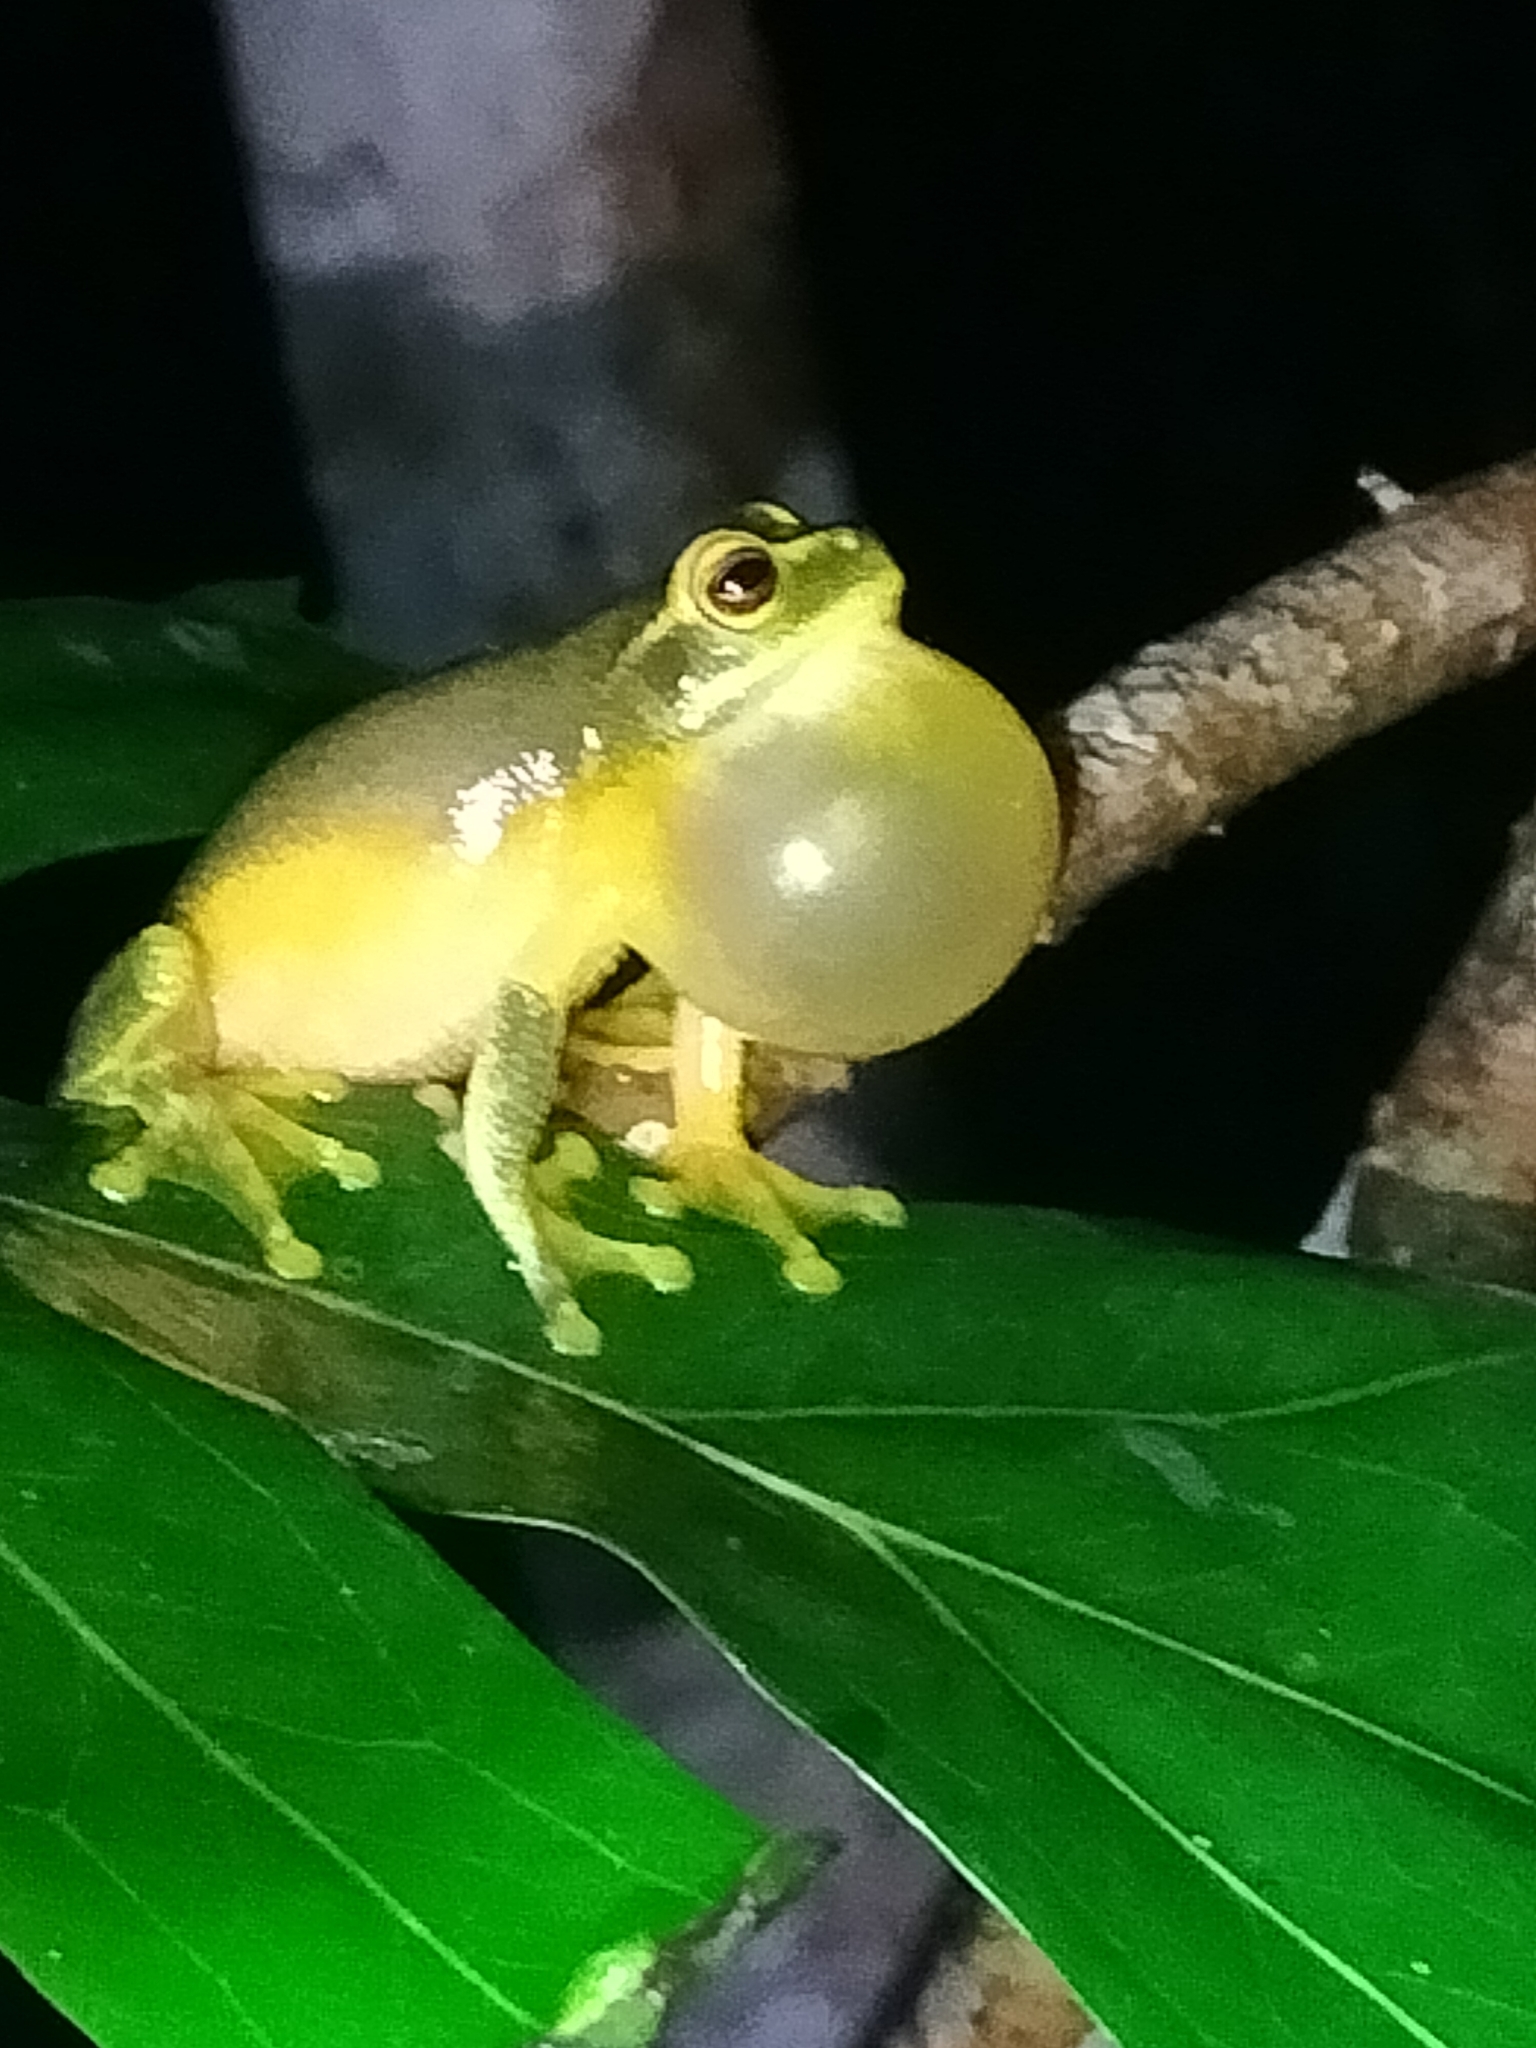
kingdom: Animalia
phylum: Chordata
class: Amphibia
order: Anura
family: Pelodryadidae
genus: Ranoidea
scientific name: Ranoidea gracilenta
